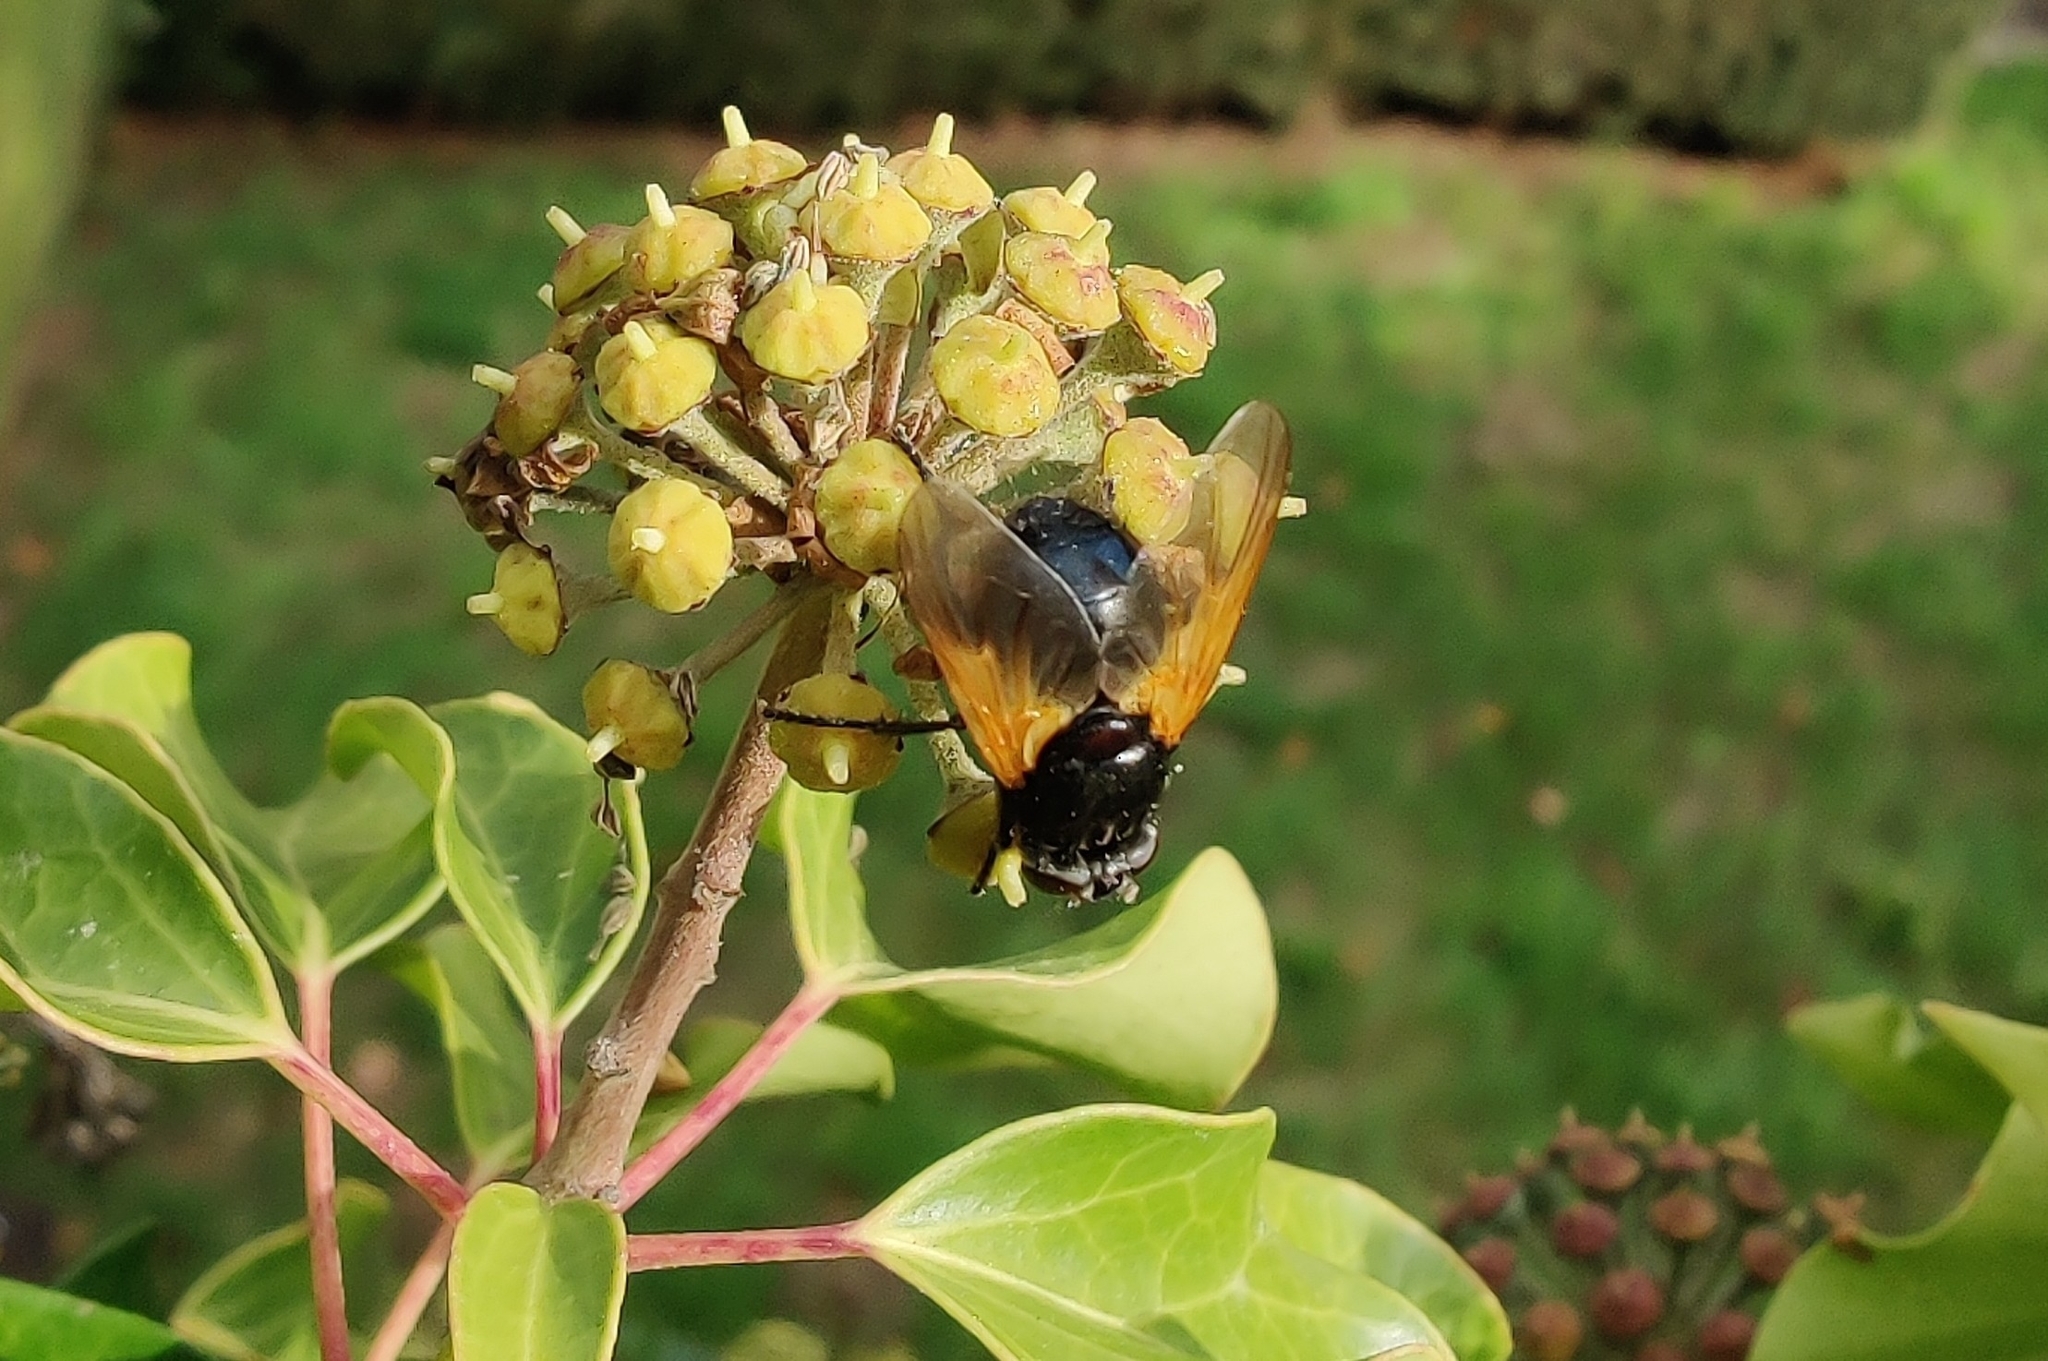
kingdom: Animalia
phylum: Arthropoda
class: Insecta
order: Diptera
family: Muscidae
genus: Mesembrina
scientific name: Mesembrina meridiana
